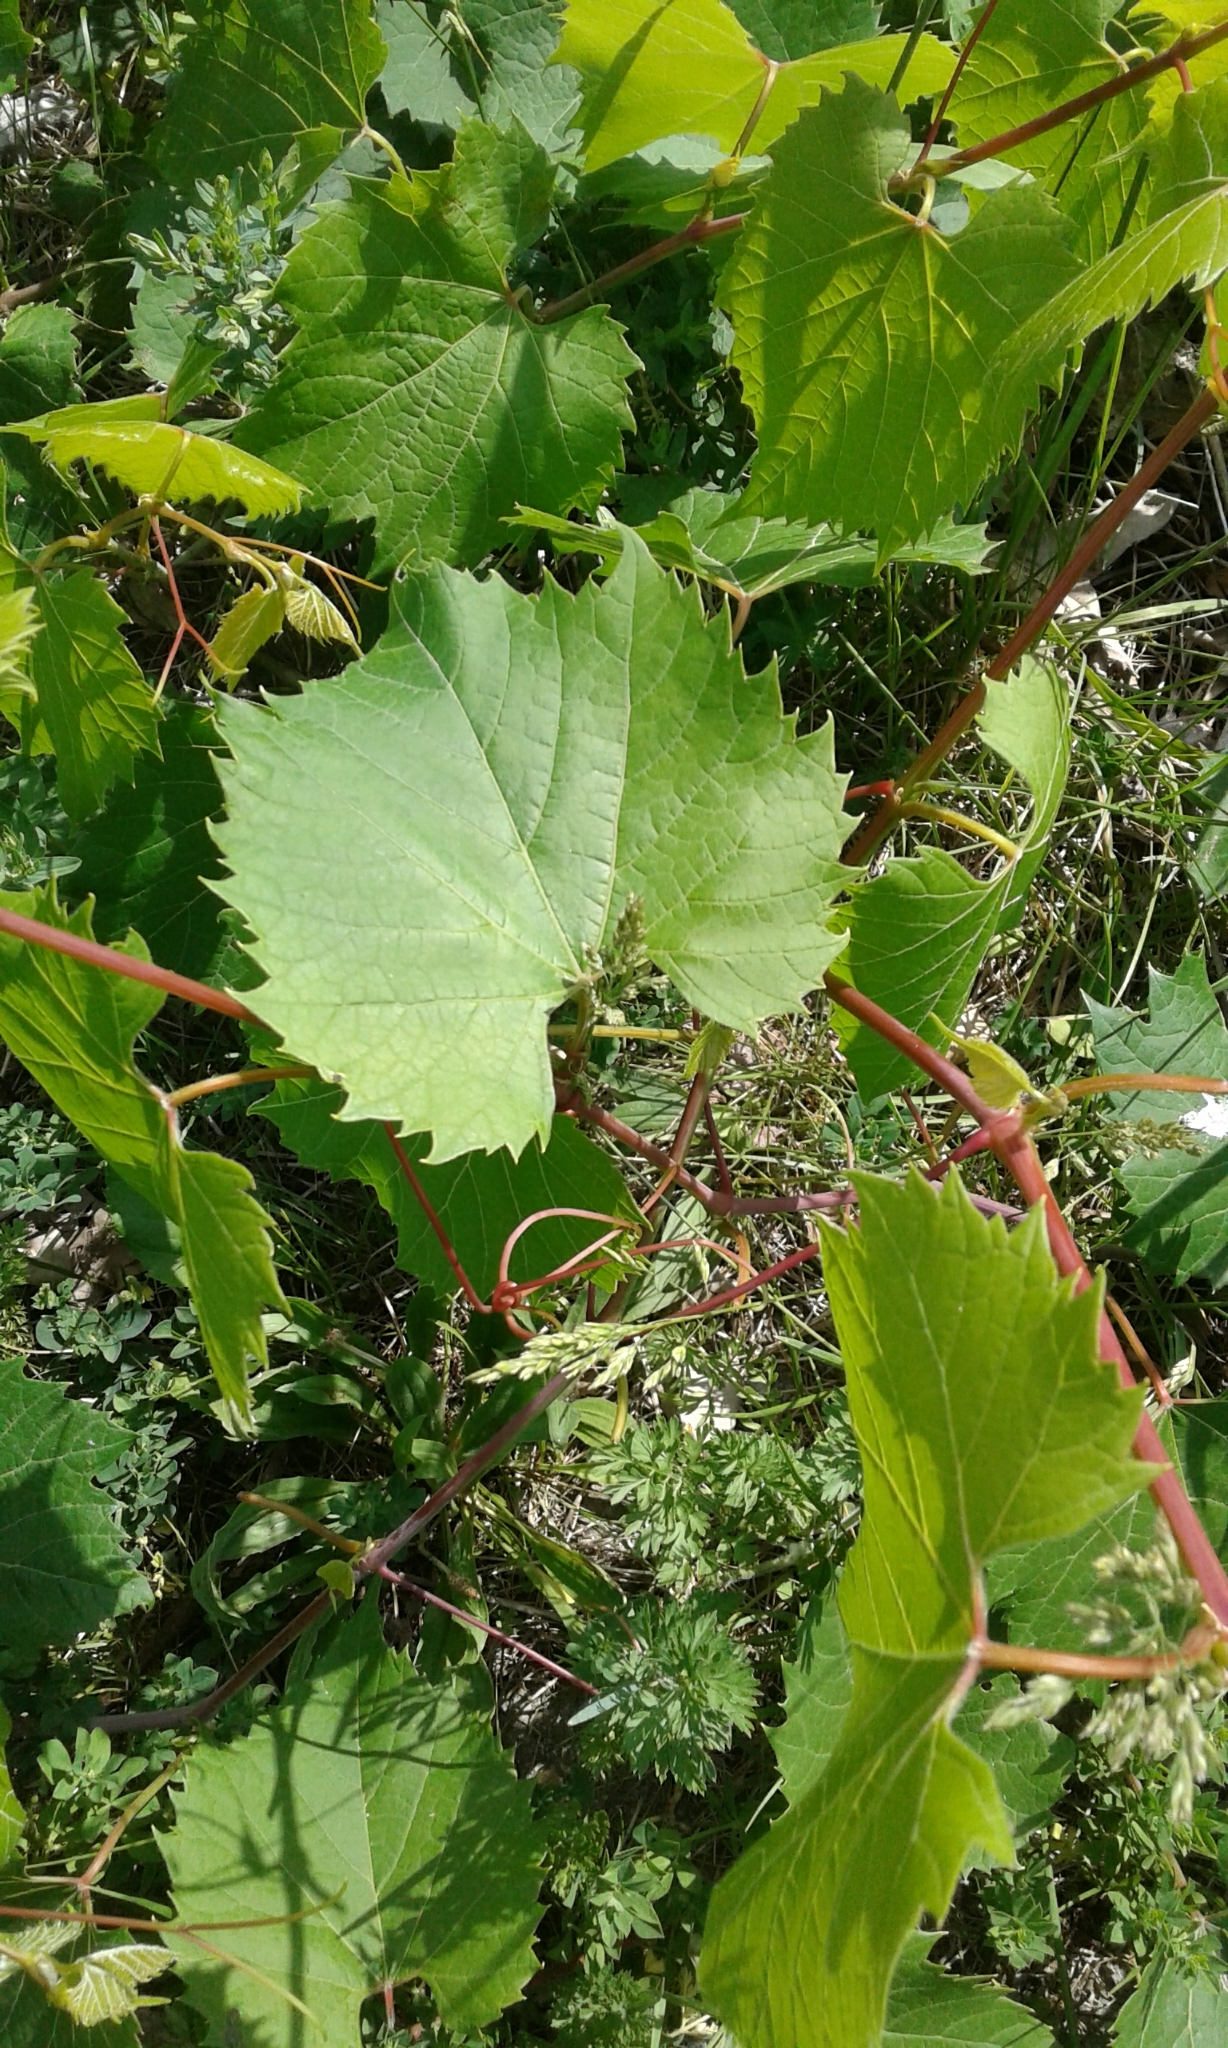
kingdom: Plantae
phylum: Tracheophyta
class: Magnoliopsida
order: Vitales
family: Vitaceae
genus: Vitis
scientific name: Vitis riparia
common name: Frost grape
